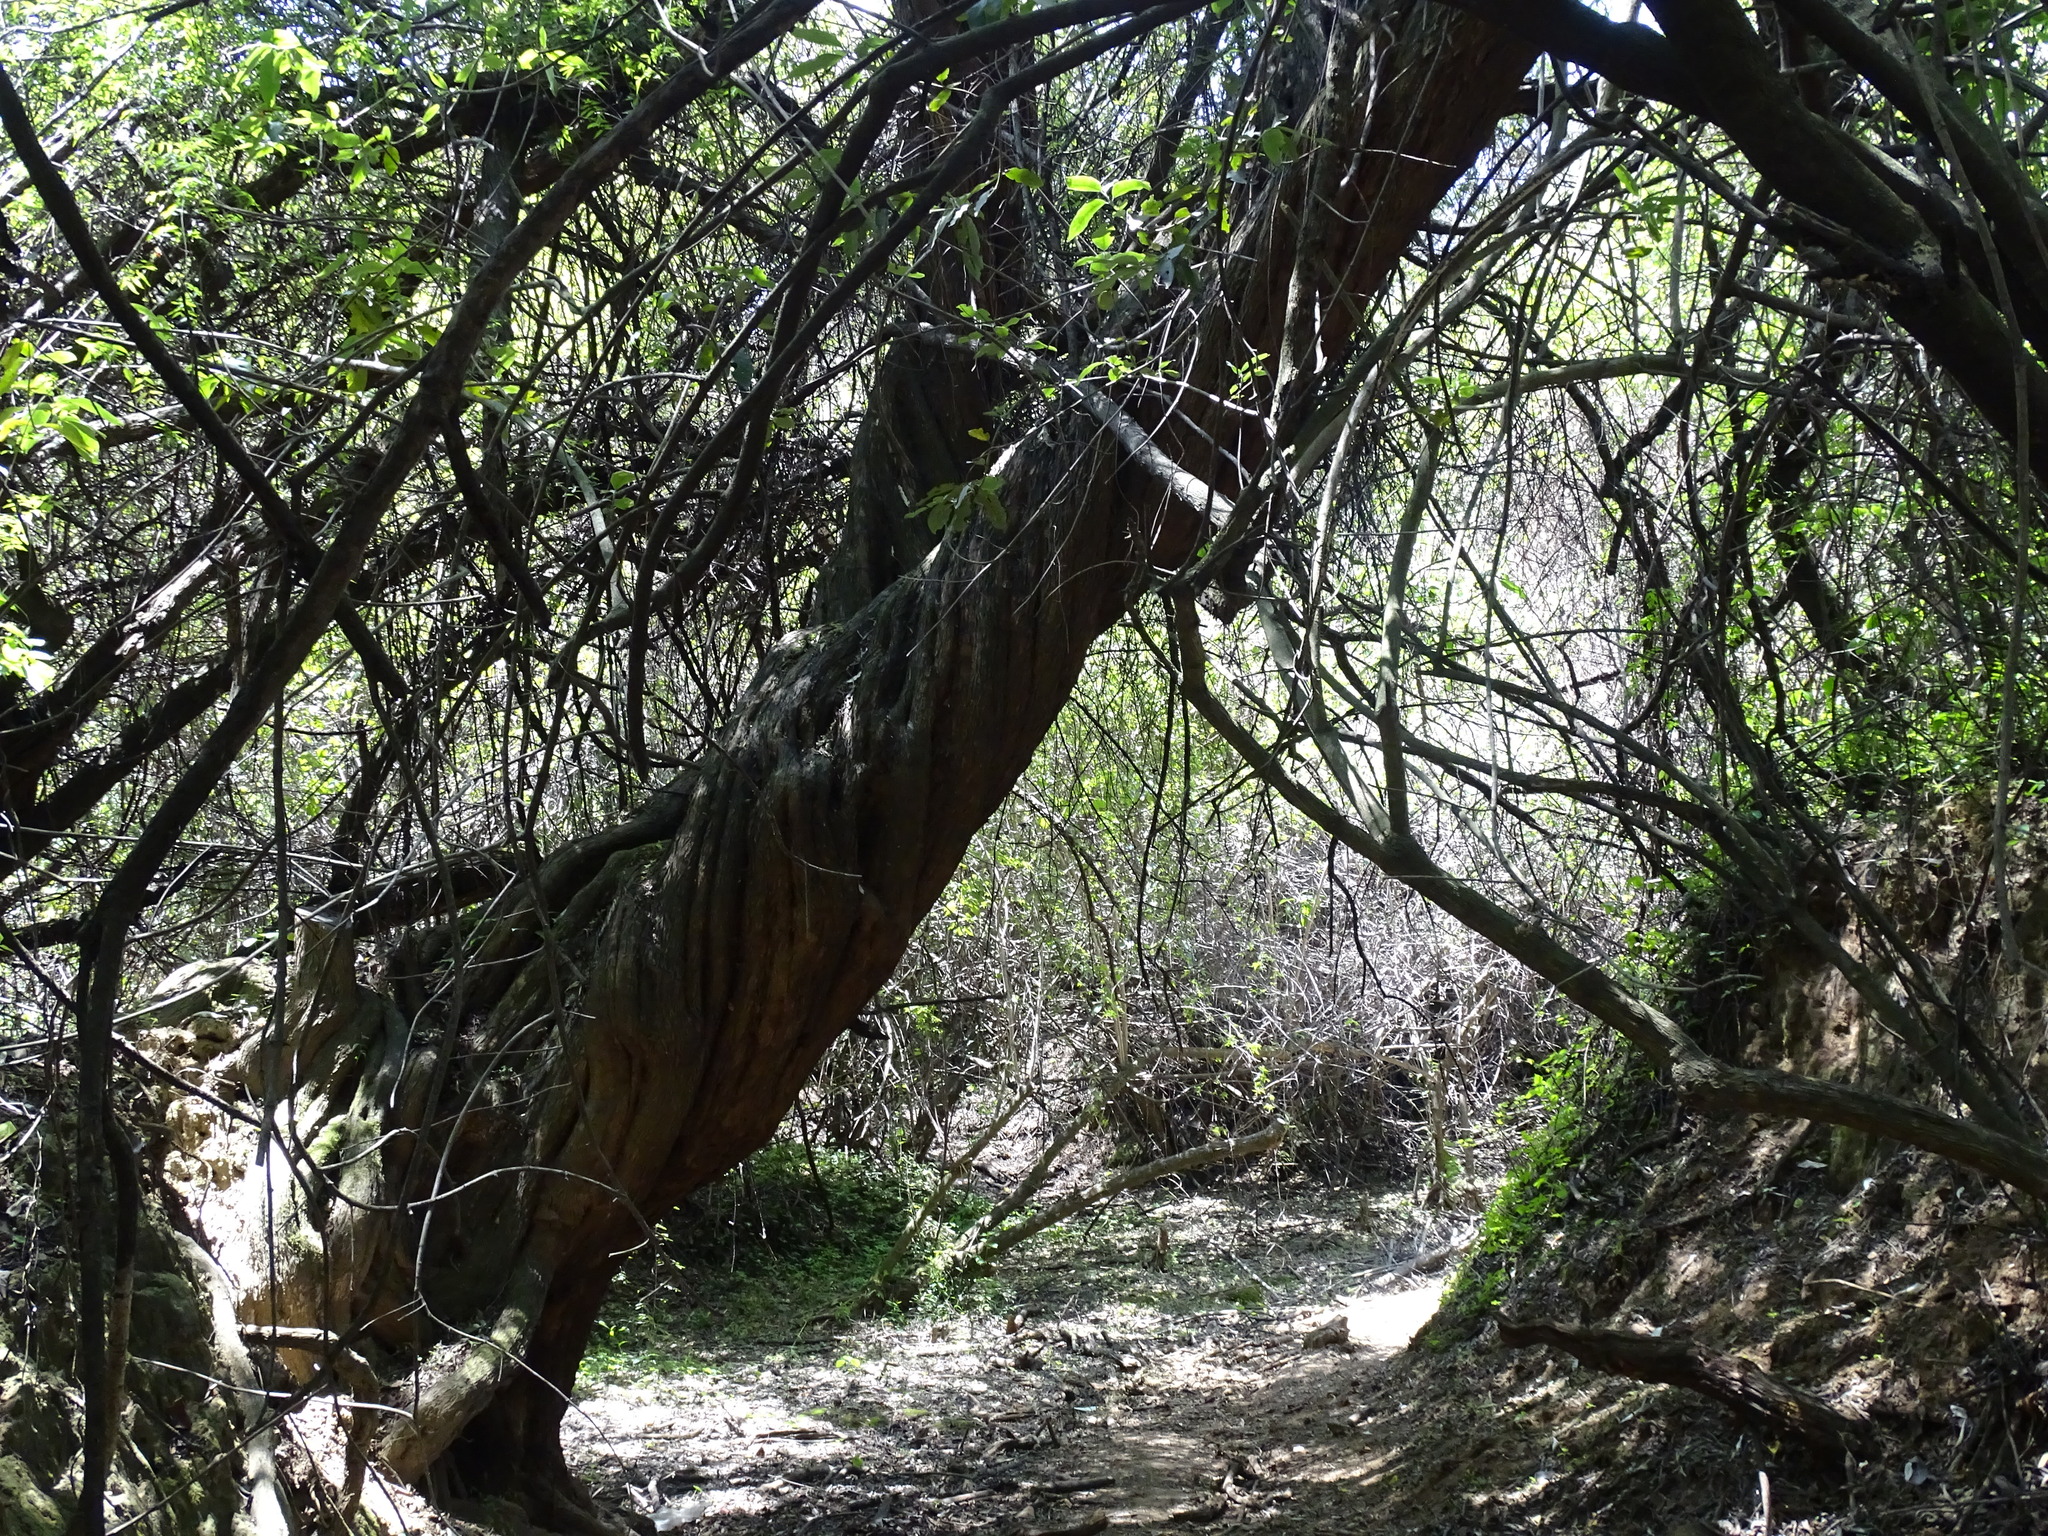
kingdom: Plantae
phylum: Tracheophyta
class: Magnoliopsida
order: Lamiales
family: Scrophulariaceae
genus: Buddleja
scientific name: Buddleja cordata
